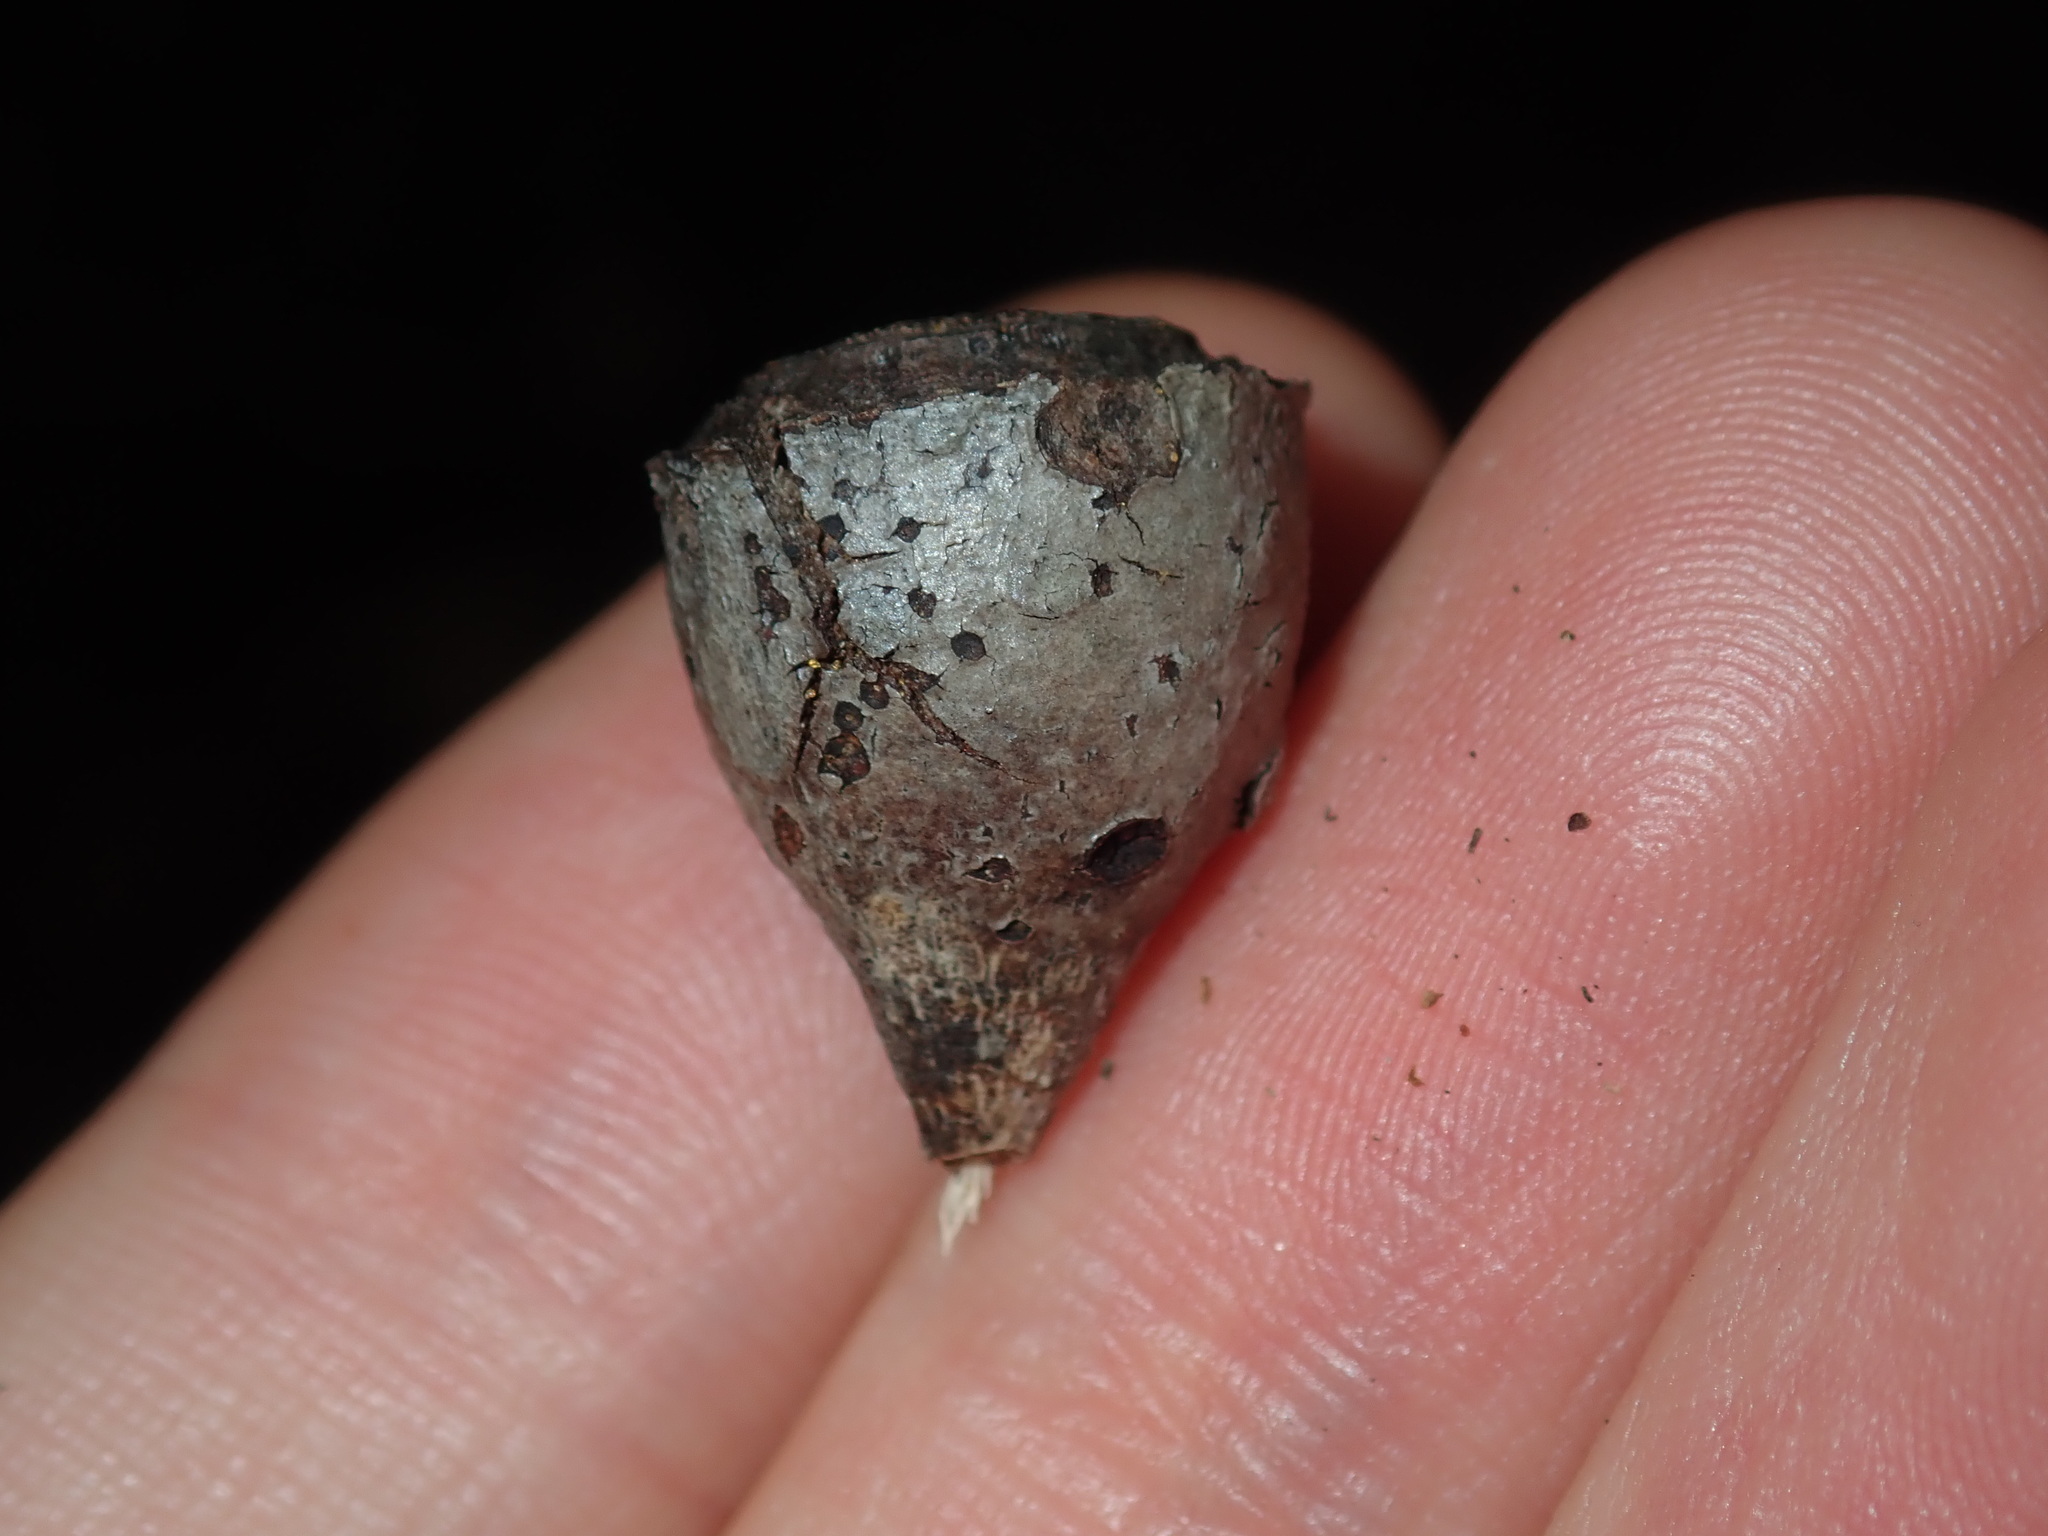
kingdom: Plantae
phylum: Tracheophyta
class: Magnoliopsida
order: Myrtales
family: Myrtaceae
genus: Eucalyptus
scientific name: Eucalyptus longifolia
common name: Woollybutt
